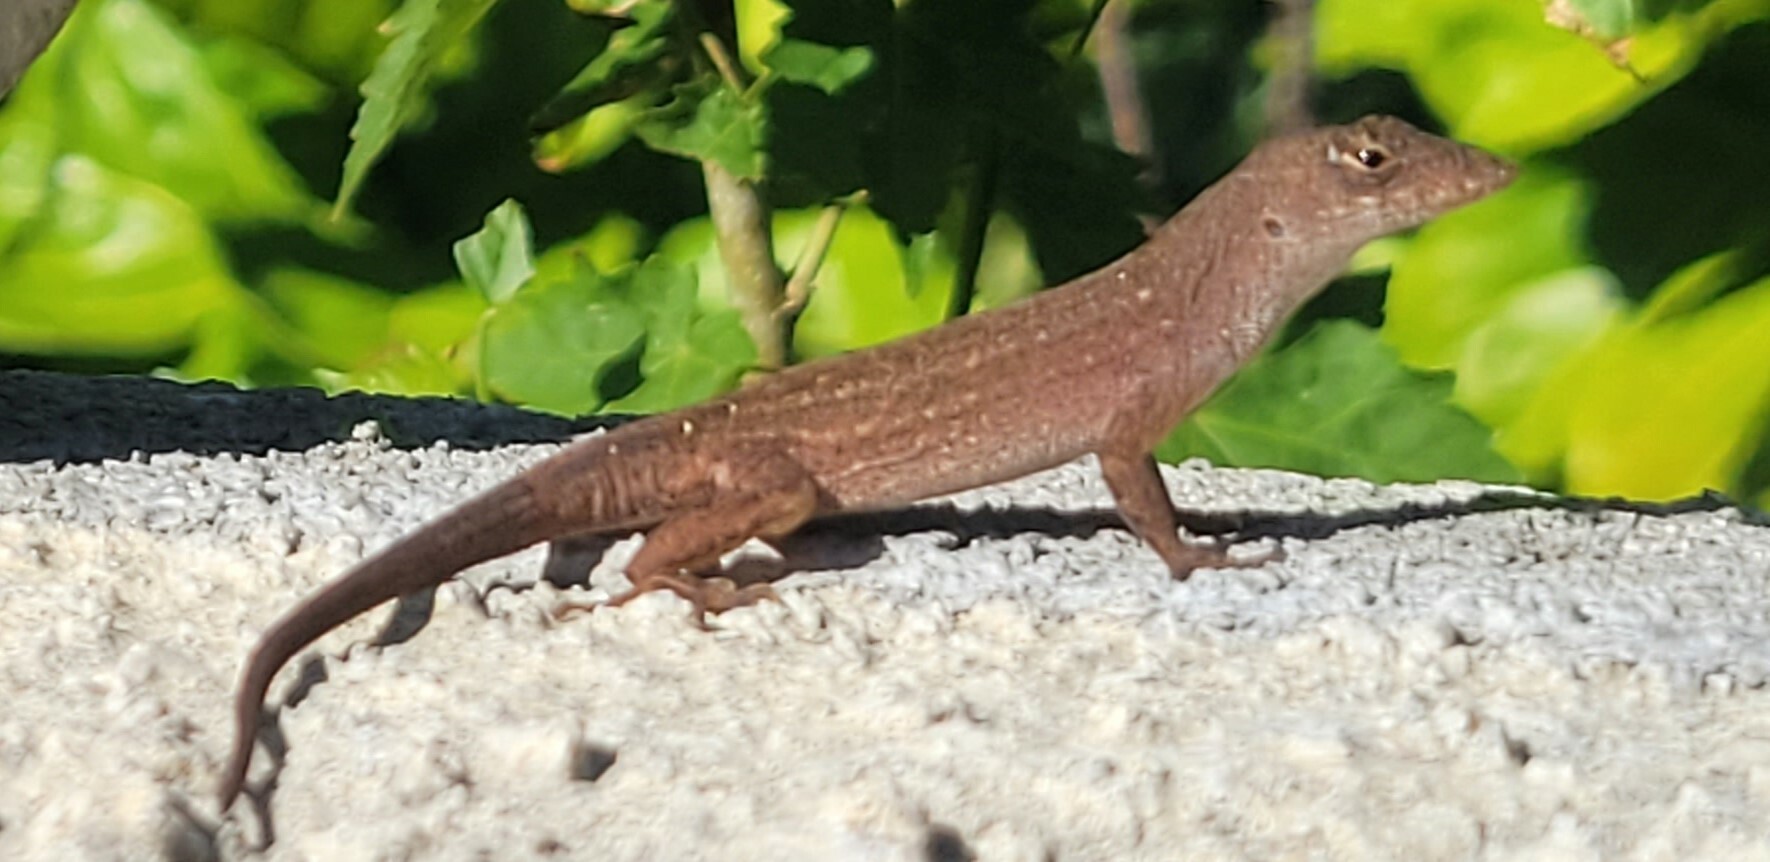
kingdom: Animalia
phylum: Chordata
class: Squamata
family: Dactyloidae
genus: Anolis
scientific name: Anolis sagrei
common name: Brown anole
